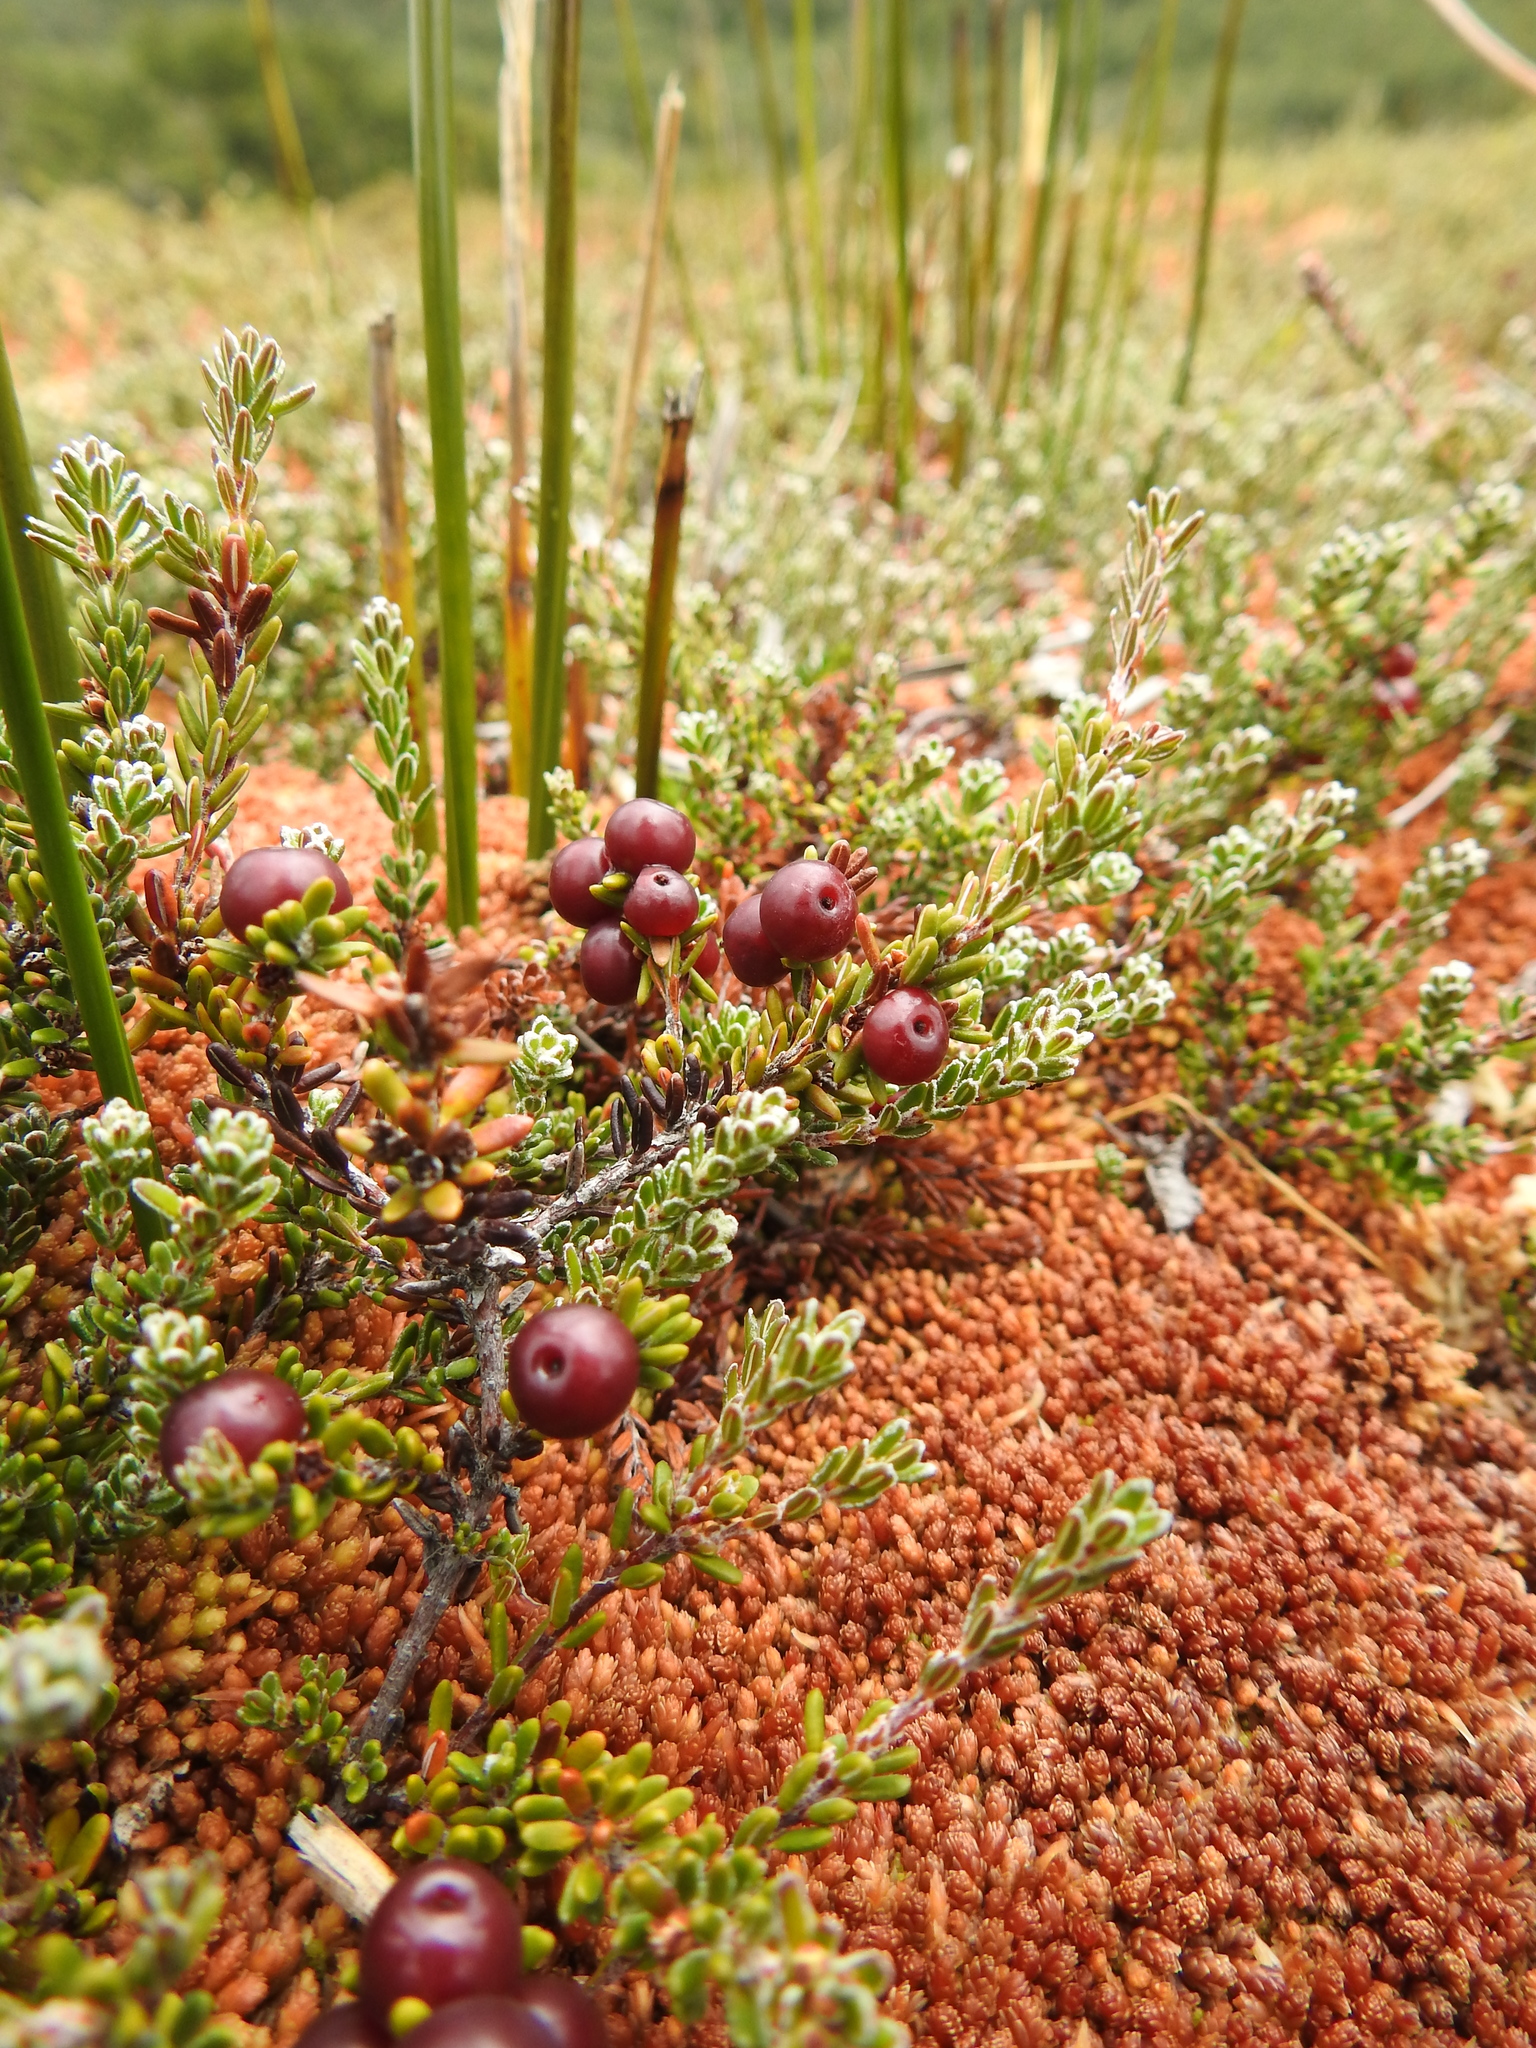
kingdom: Plantae
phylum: Tracheophyta
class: Magnoliopsida
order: Ericales
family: Ericaceae
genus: Empetrum
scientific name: Empetrum rubrum
